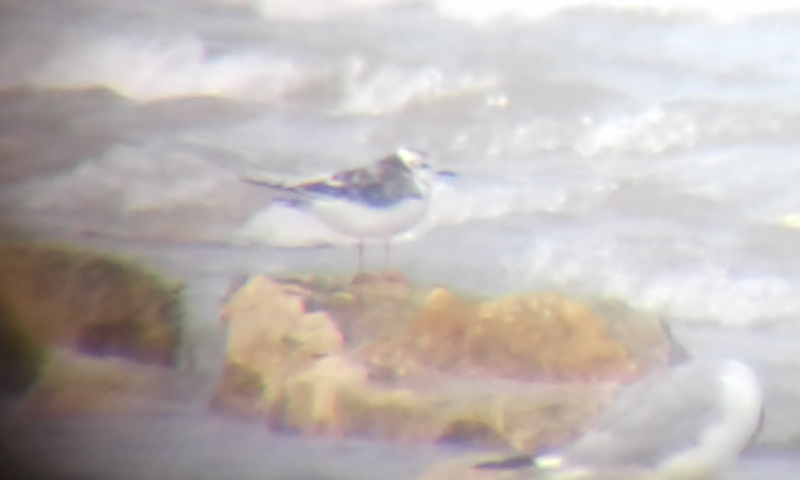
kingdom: Animalia
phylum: Chordata
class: Aves
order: Charadriiformes
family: Laridae
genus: Hydrocoloeus
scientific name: Hydrocoloeus minutus
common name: Little gull
